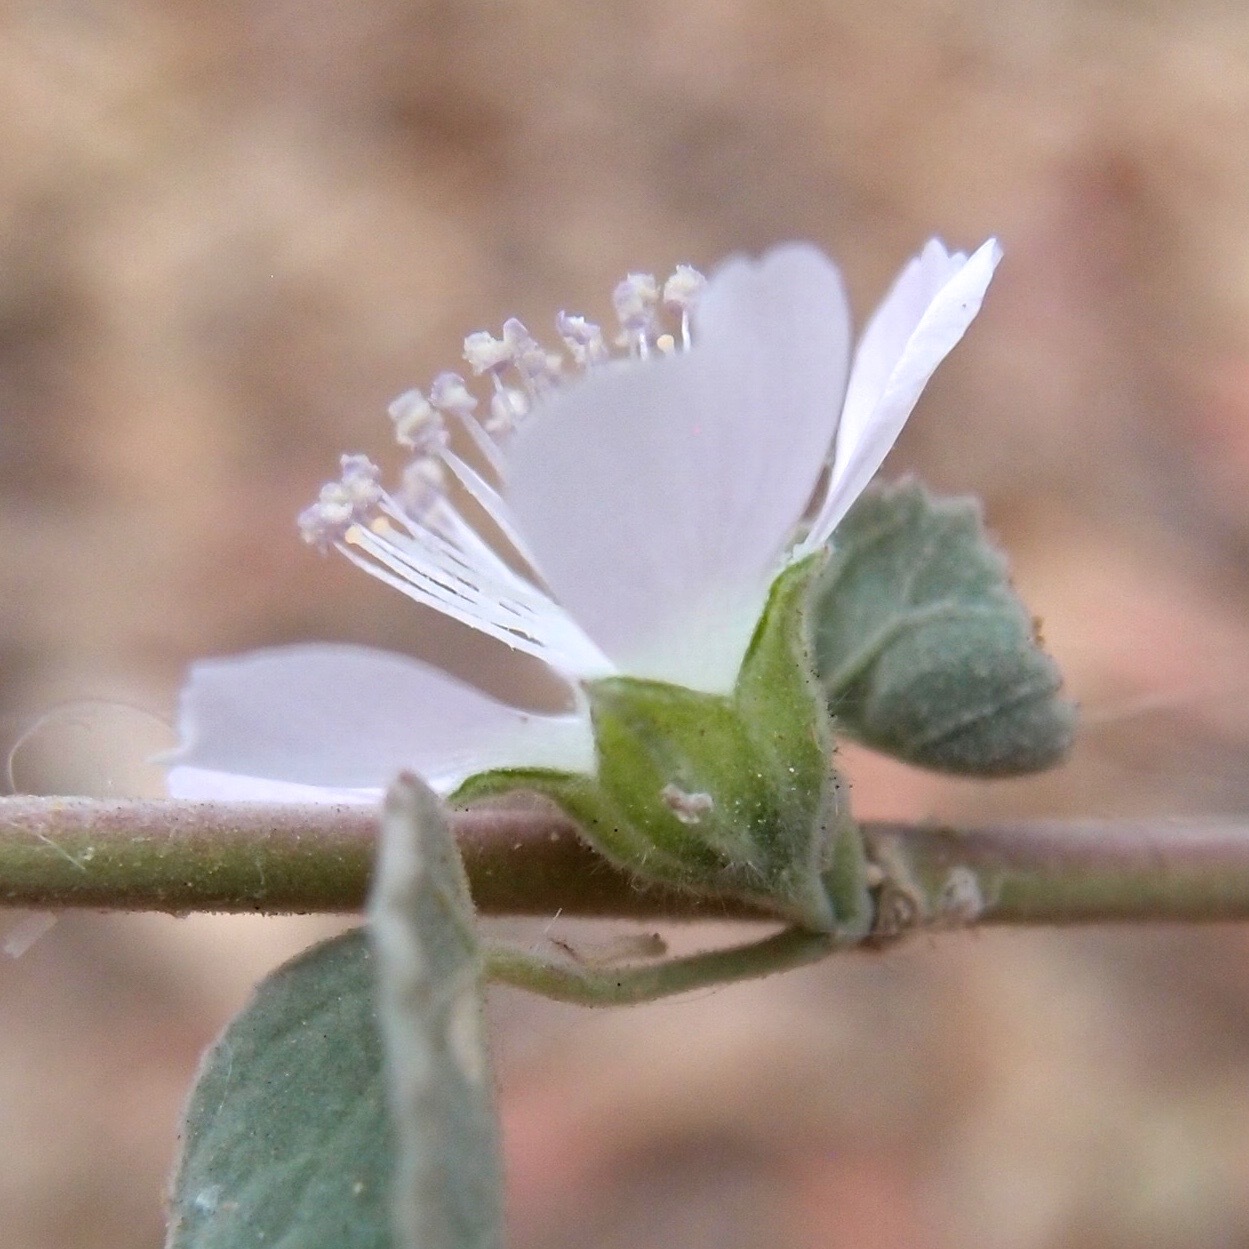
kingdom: Plantae
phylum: Tracheophyta
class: Magnoliopsida
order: Malvales
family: Malvaceae
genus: Bastardiastrum
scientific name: Bastardiastrum cinctum
